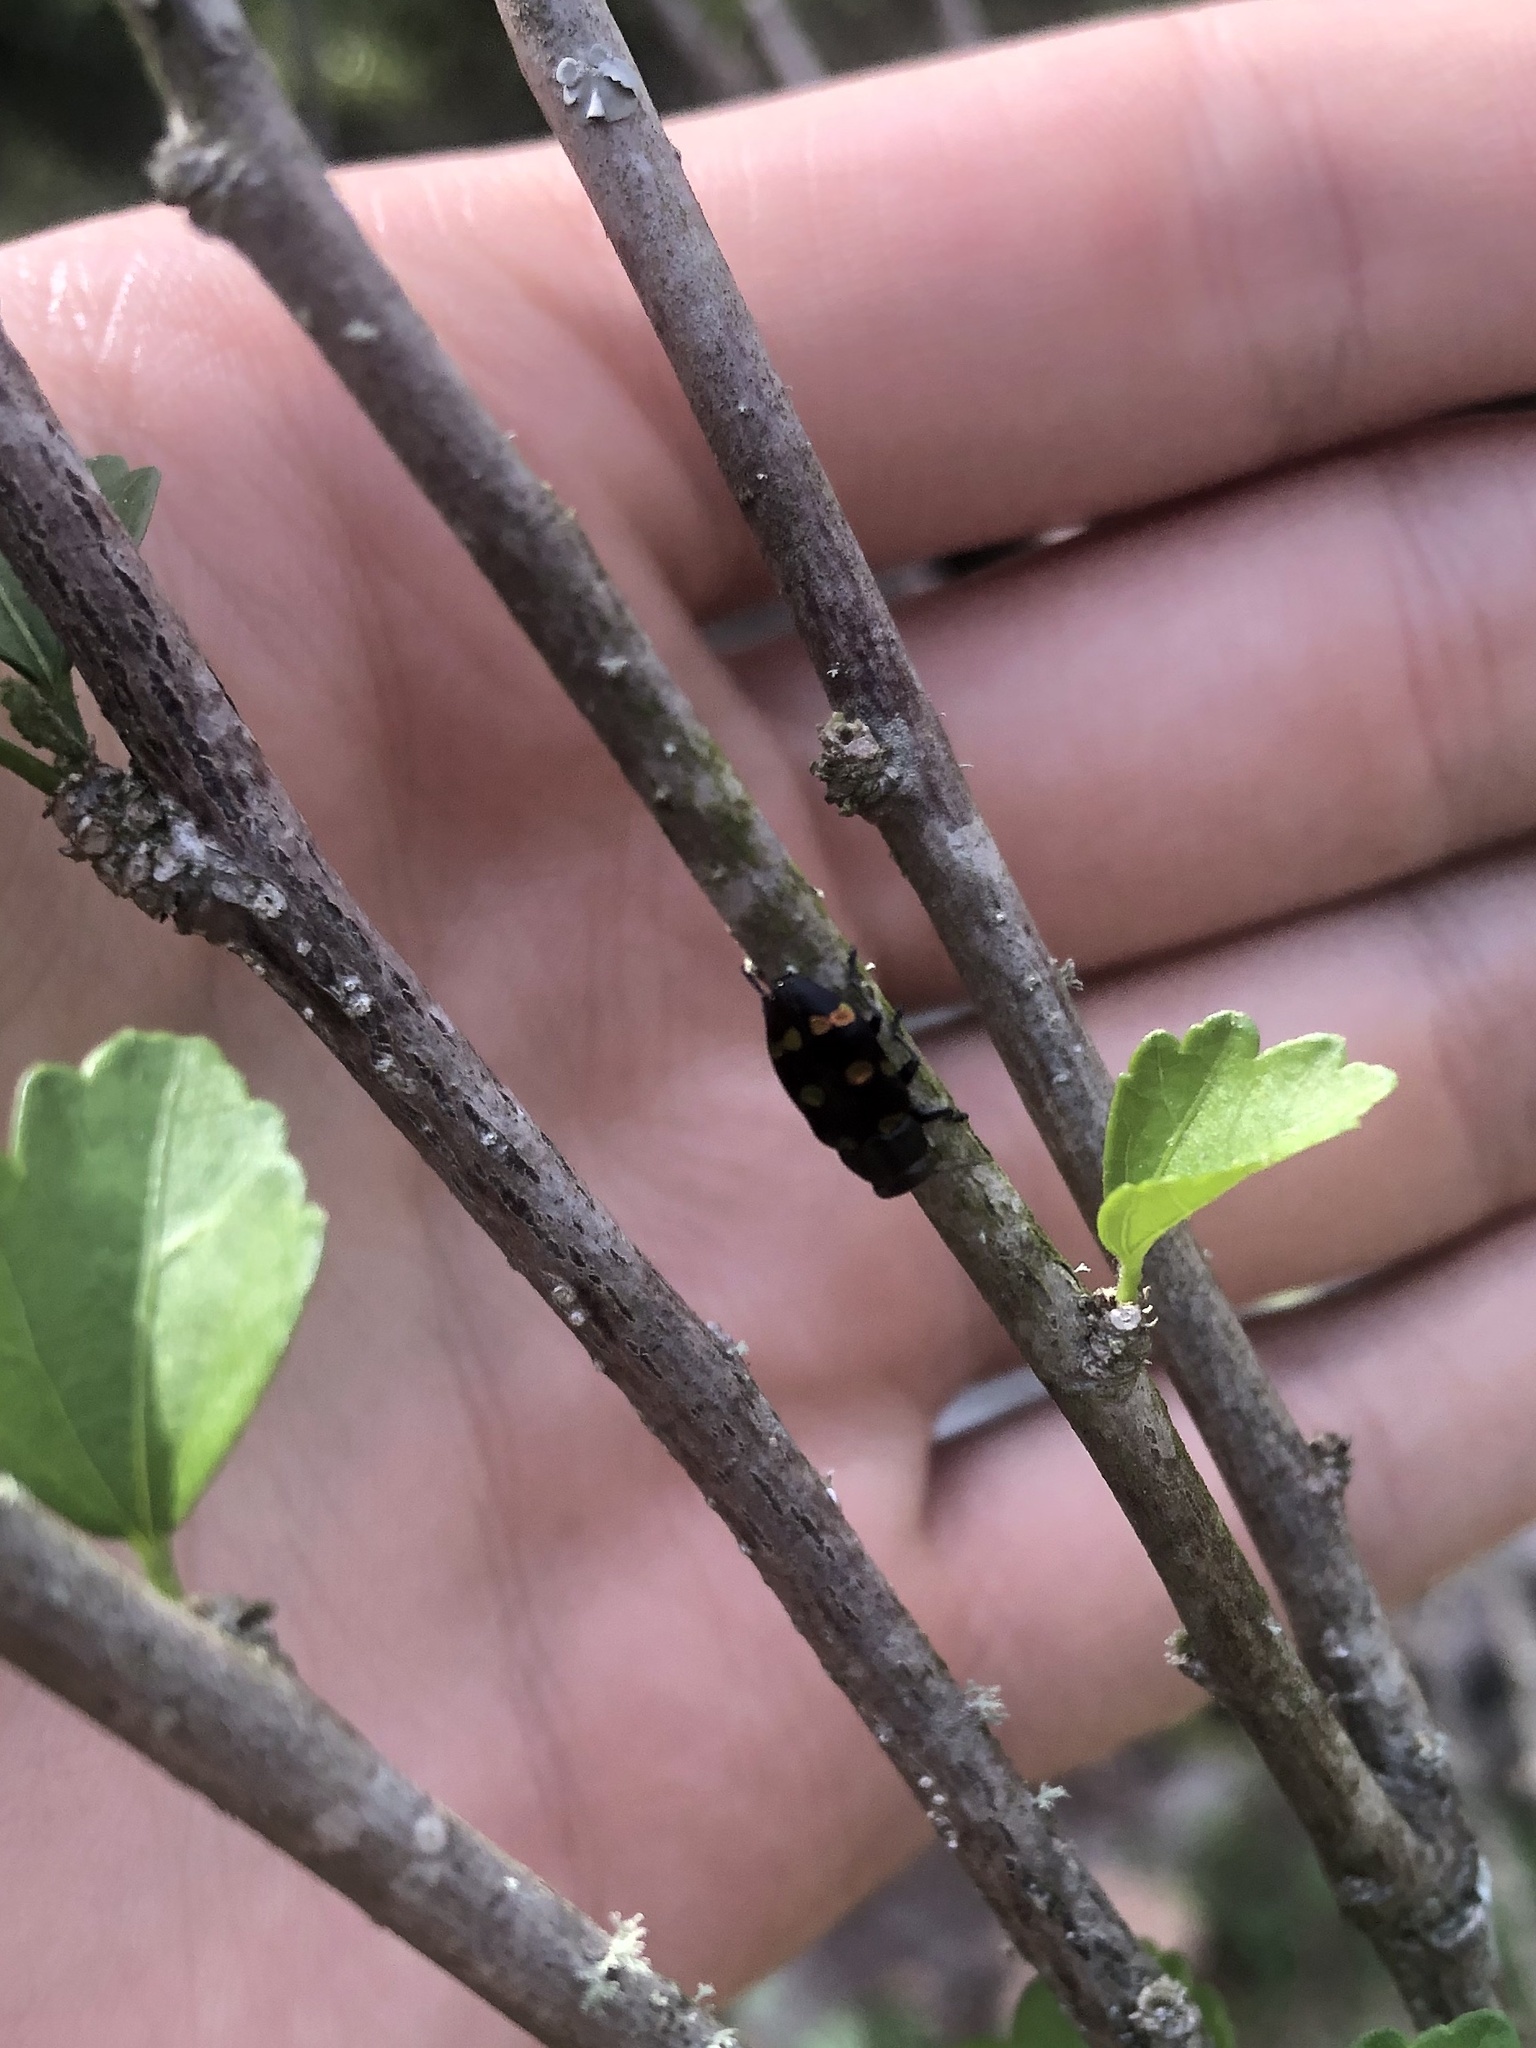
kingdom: Animalia
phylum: Arthropoda
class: Insecta
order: Coleoptera
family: Buprestidae
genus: Chrysobothris
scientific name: Chrysobothris chrysoela
